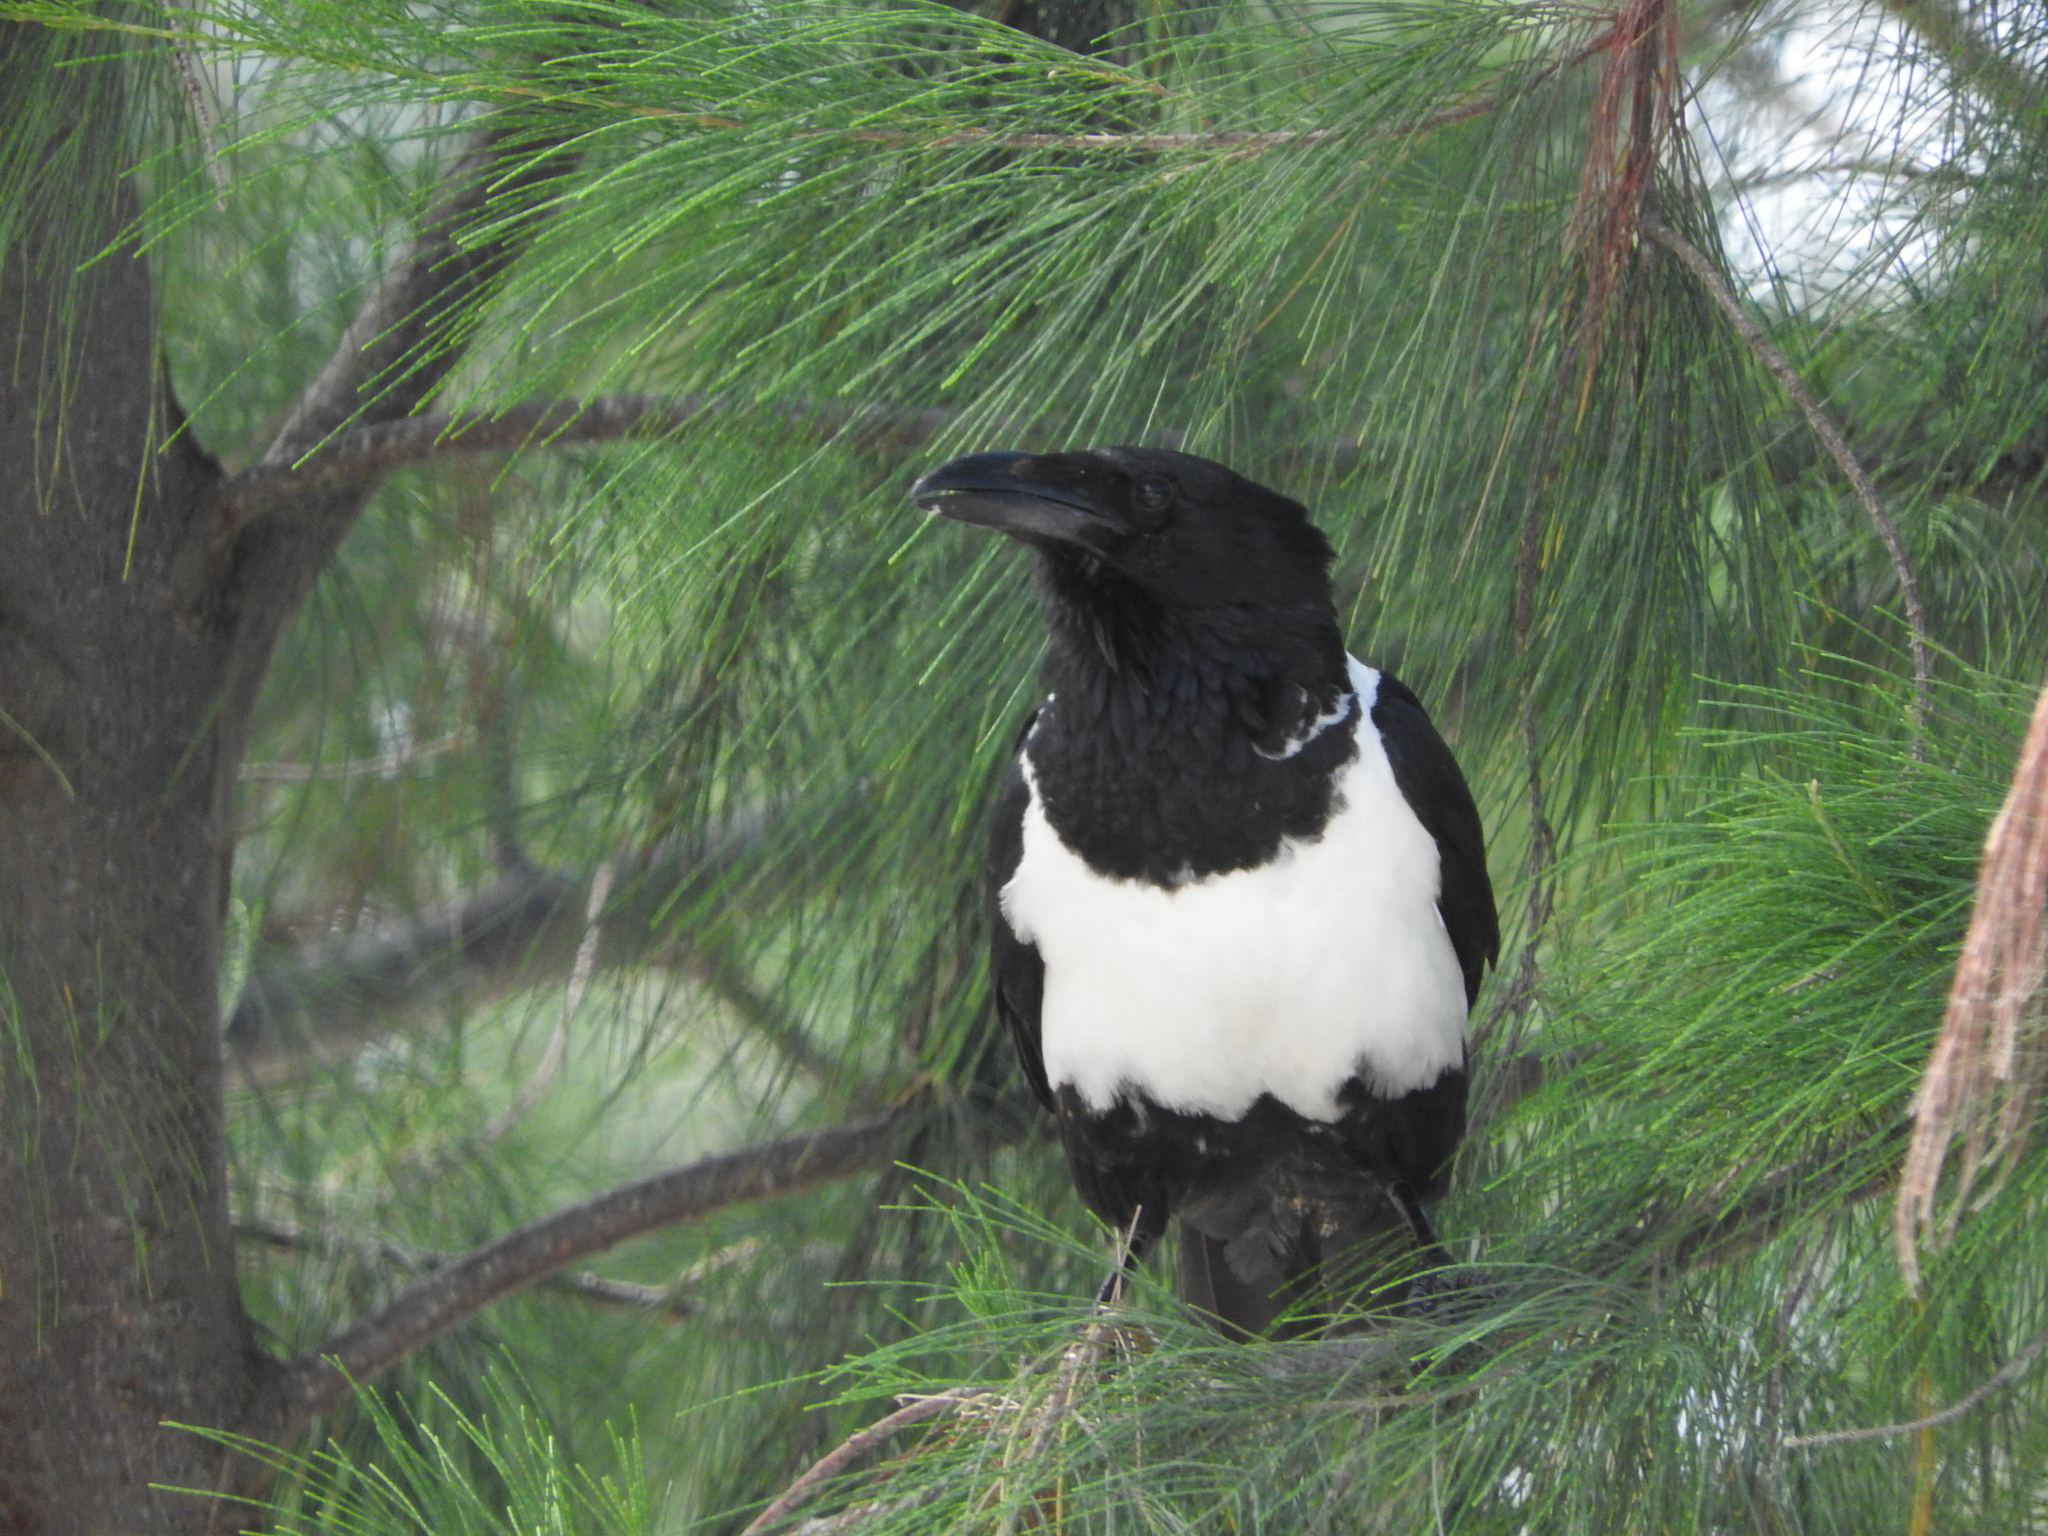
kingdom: Animalia
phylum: Chordata
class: Aves
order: Passeriformes
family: Corvidae
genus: Corvus
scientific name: Corvus albus
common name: Pied crow
